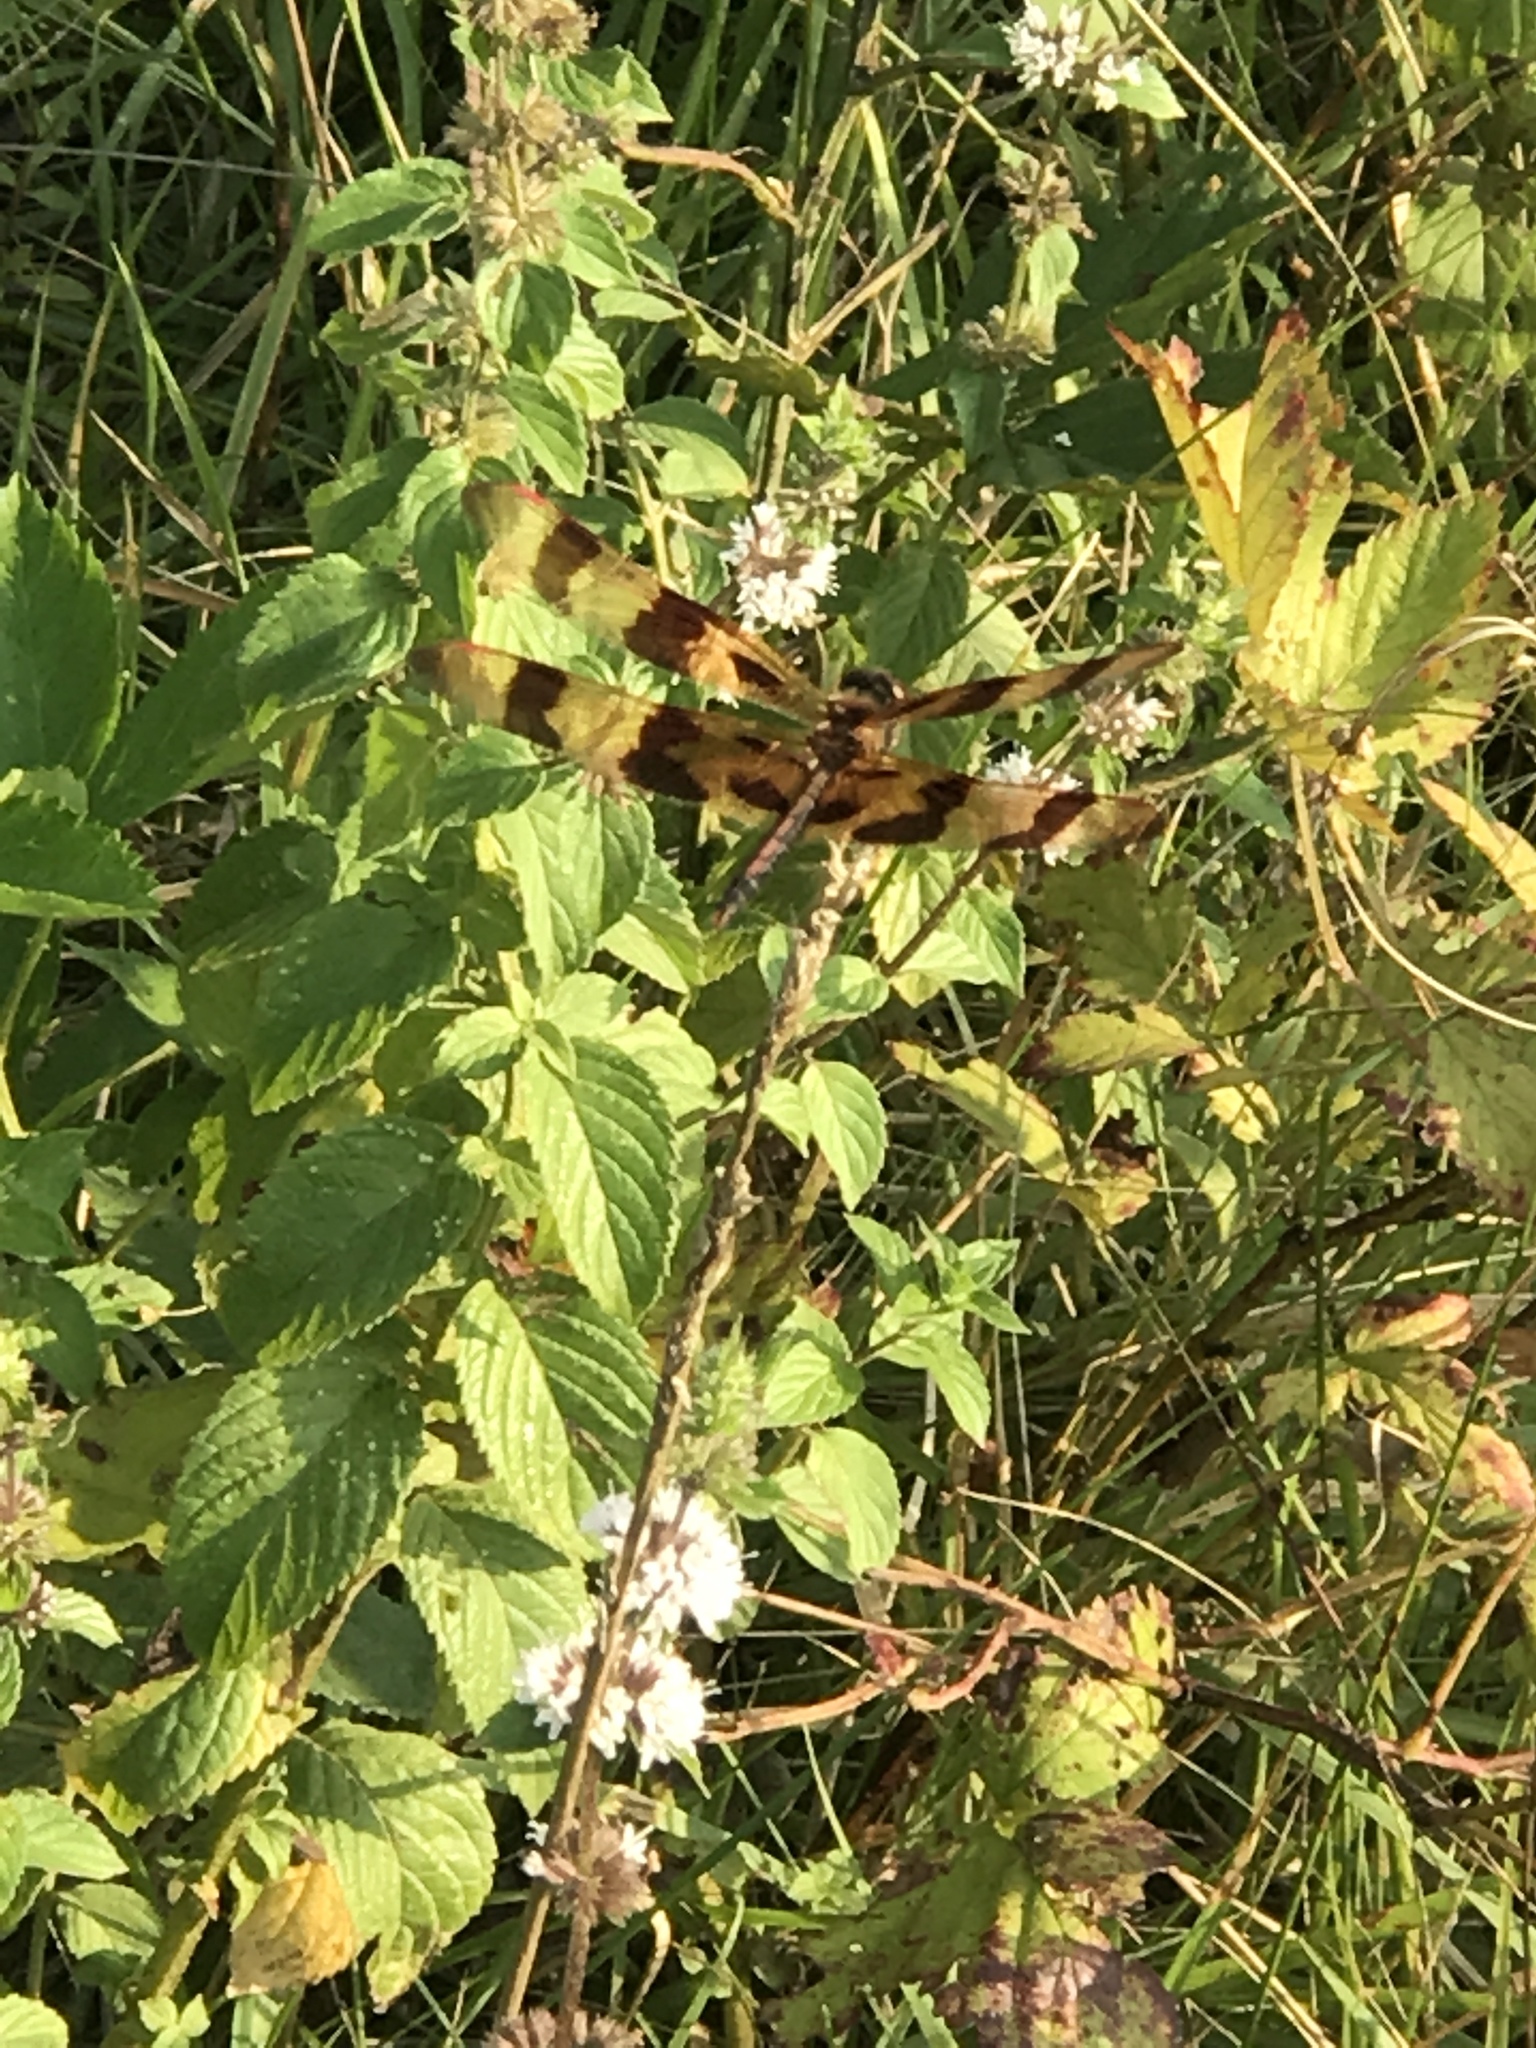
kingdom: Animalia
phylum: Arthropoda
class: Insecta
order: Odonata
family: Libellulidae
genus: Celithemis
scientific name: Celithemis eponina
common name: Halloween pennant
